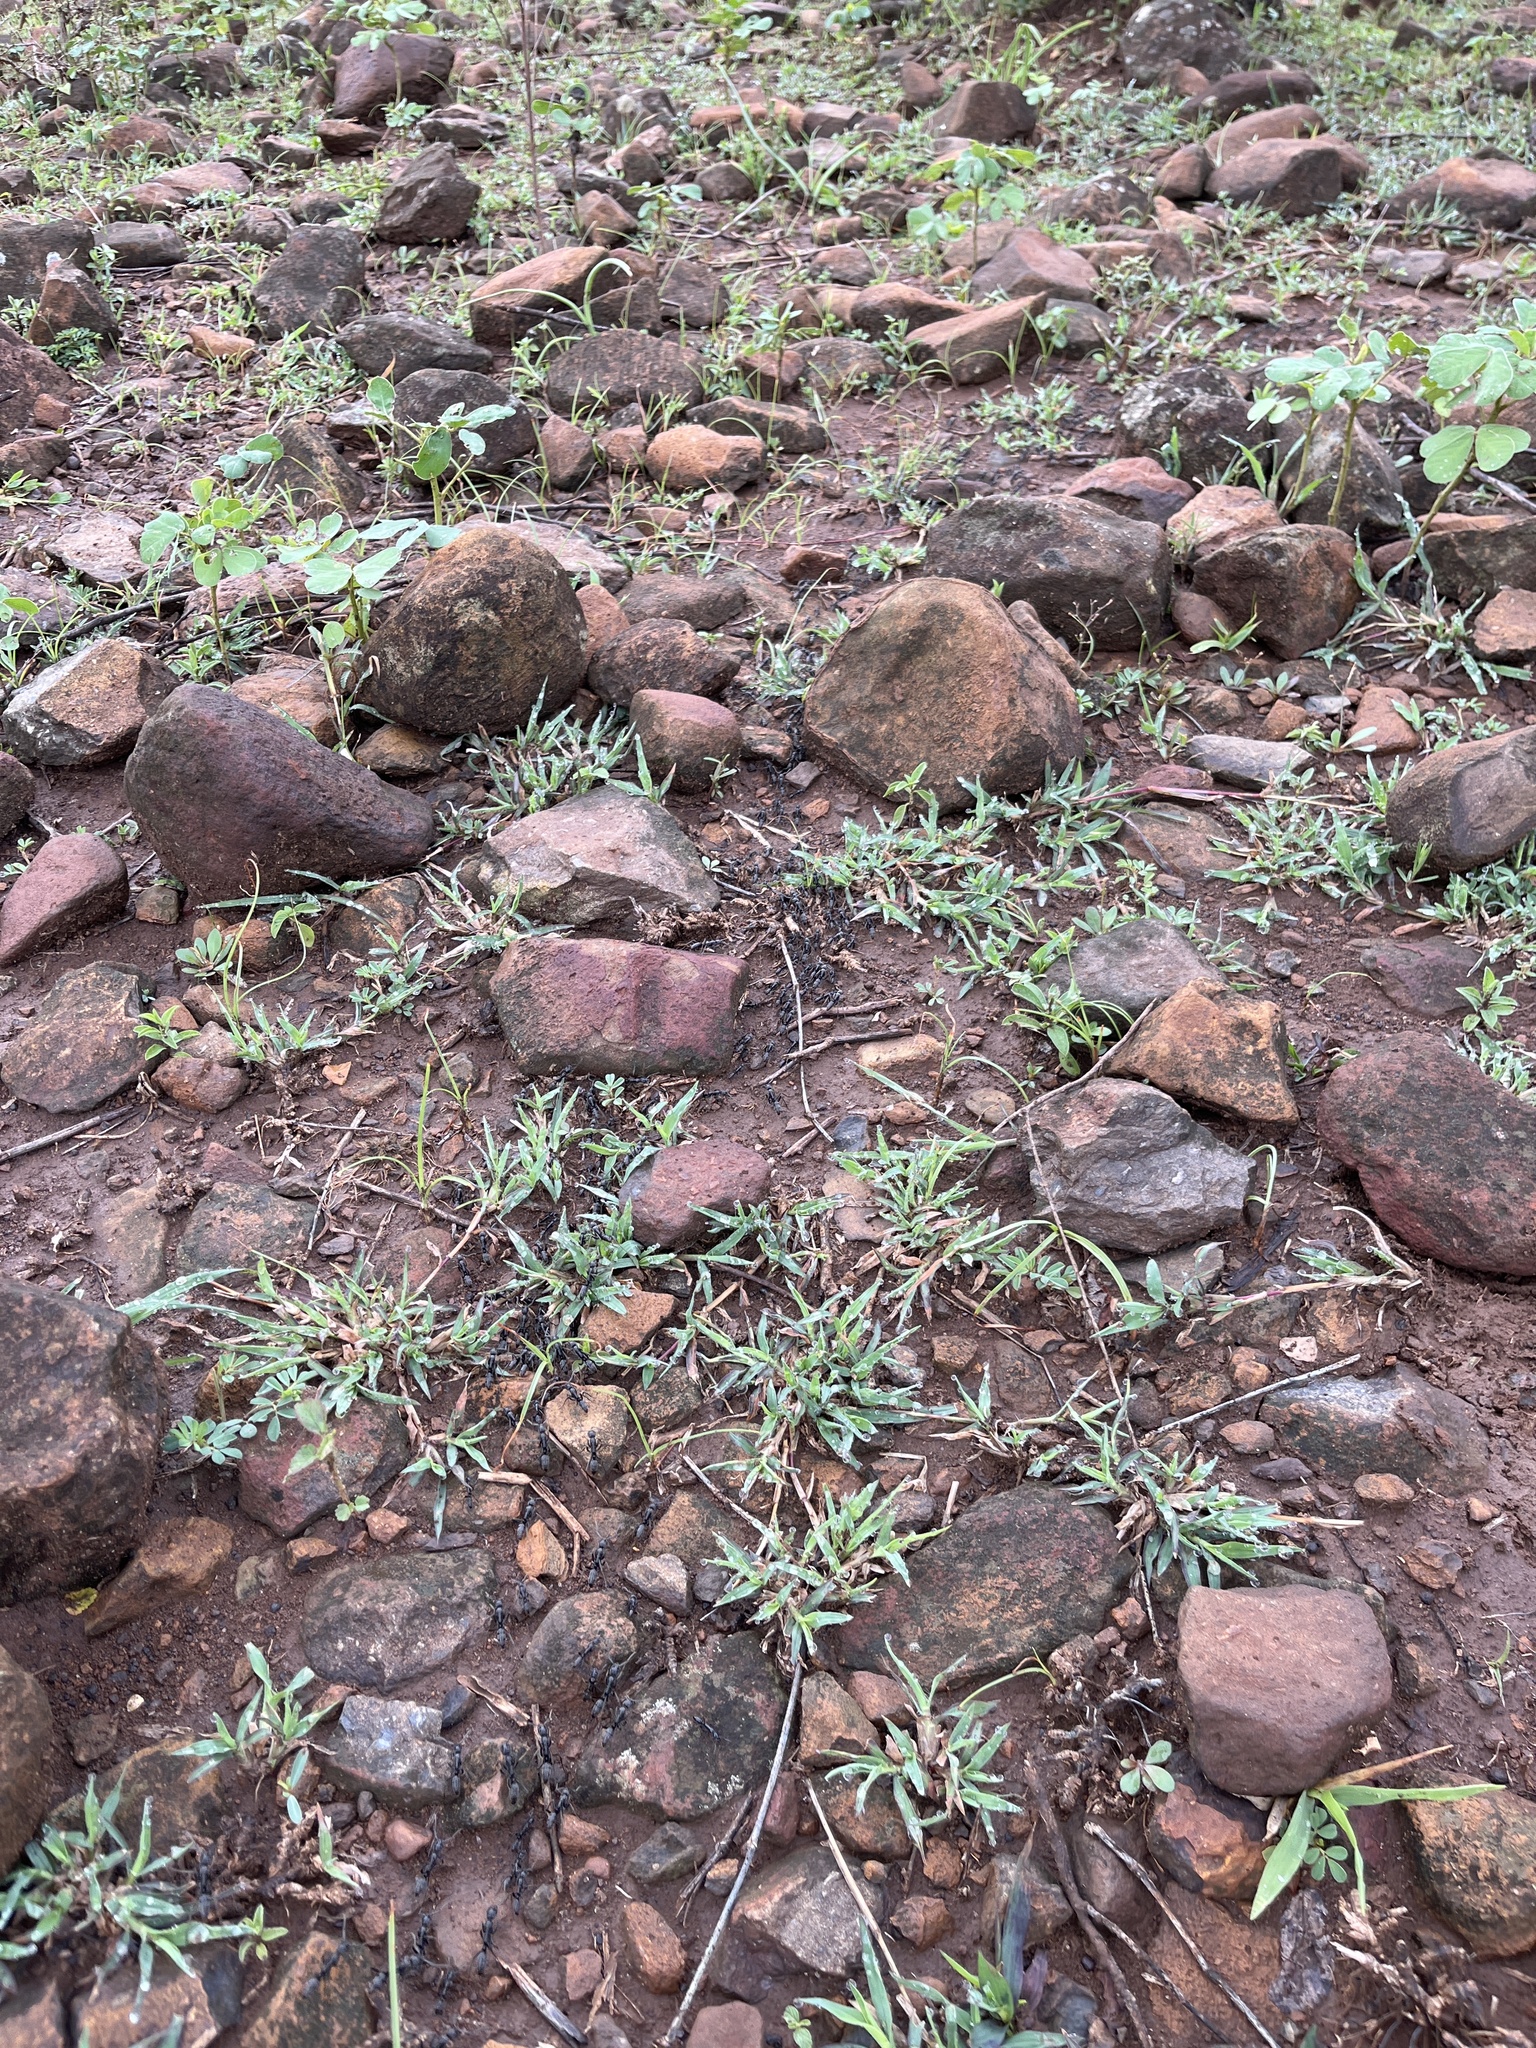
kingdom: Animalia
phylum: Arthropoda
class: Insecta
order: Hymenoptera
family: Formicidae
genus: Megaponera
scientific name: Megaponera analis
